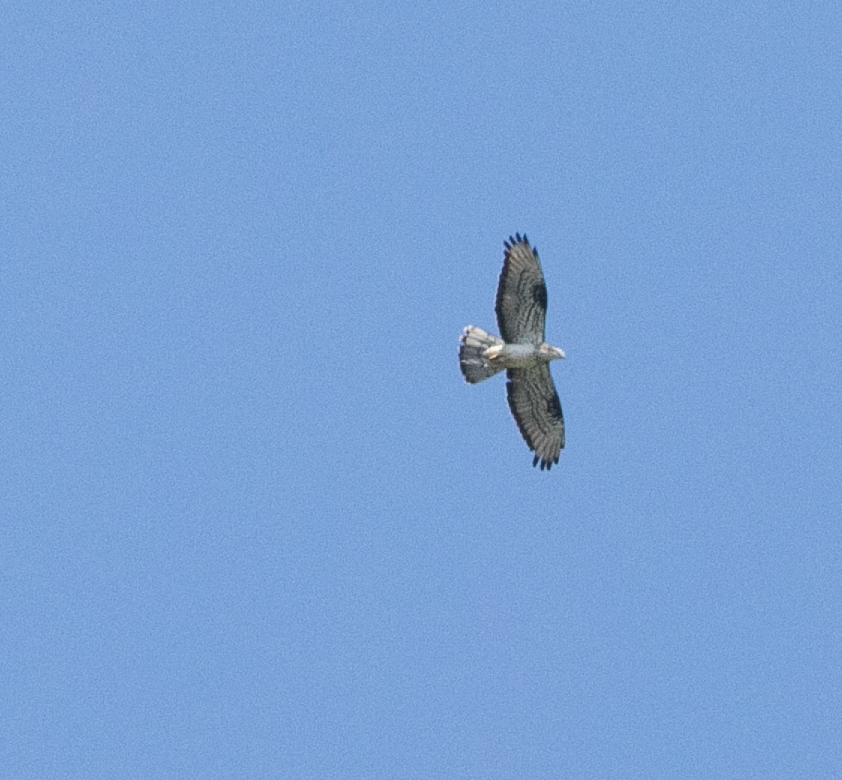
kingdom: Animalia
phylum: Chordata
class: Aves
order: Accipitriformes
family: Accipitridae
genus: Pernis
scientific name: Pernis apivorus
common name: European honey buzzard
